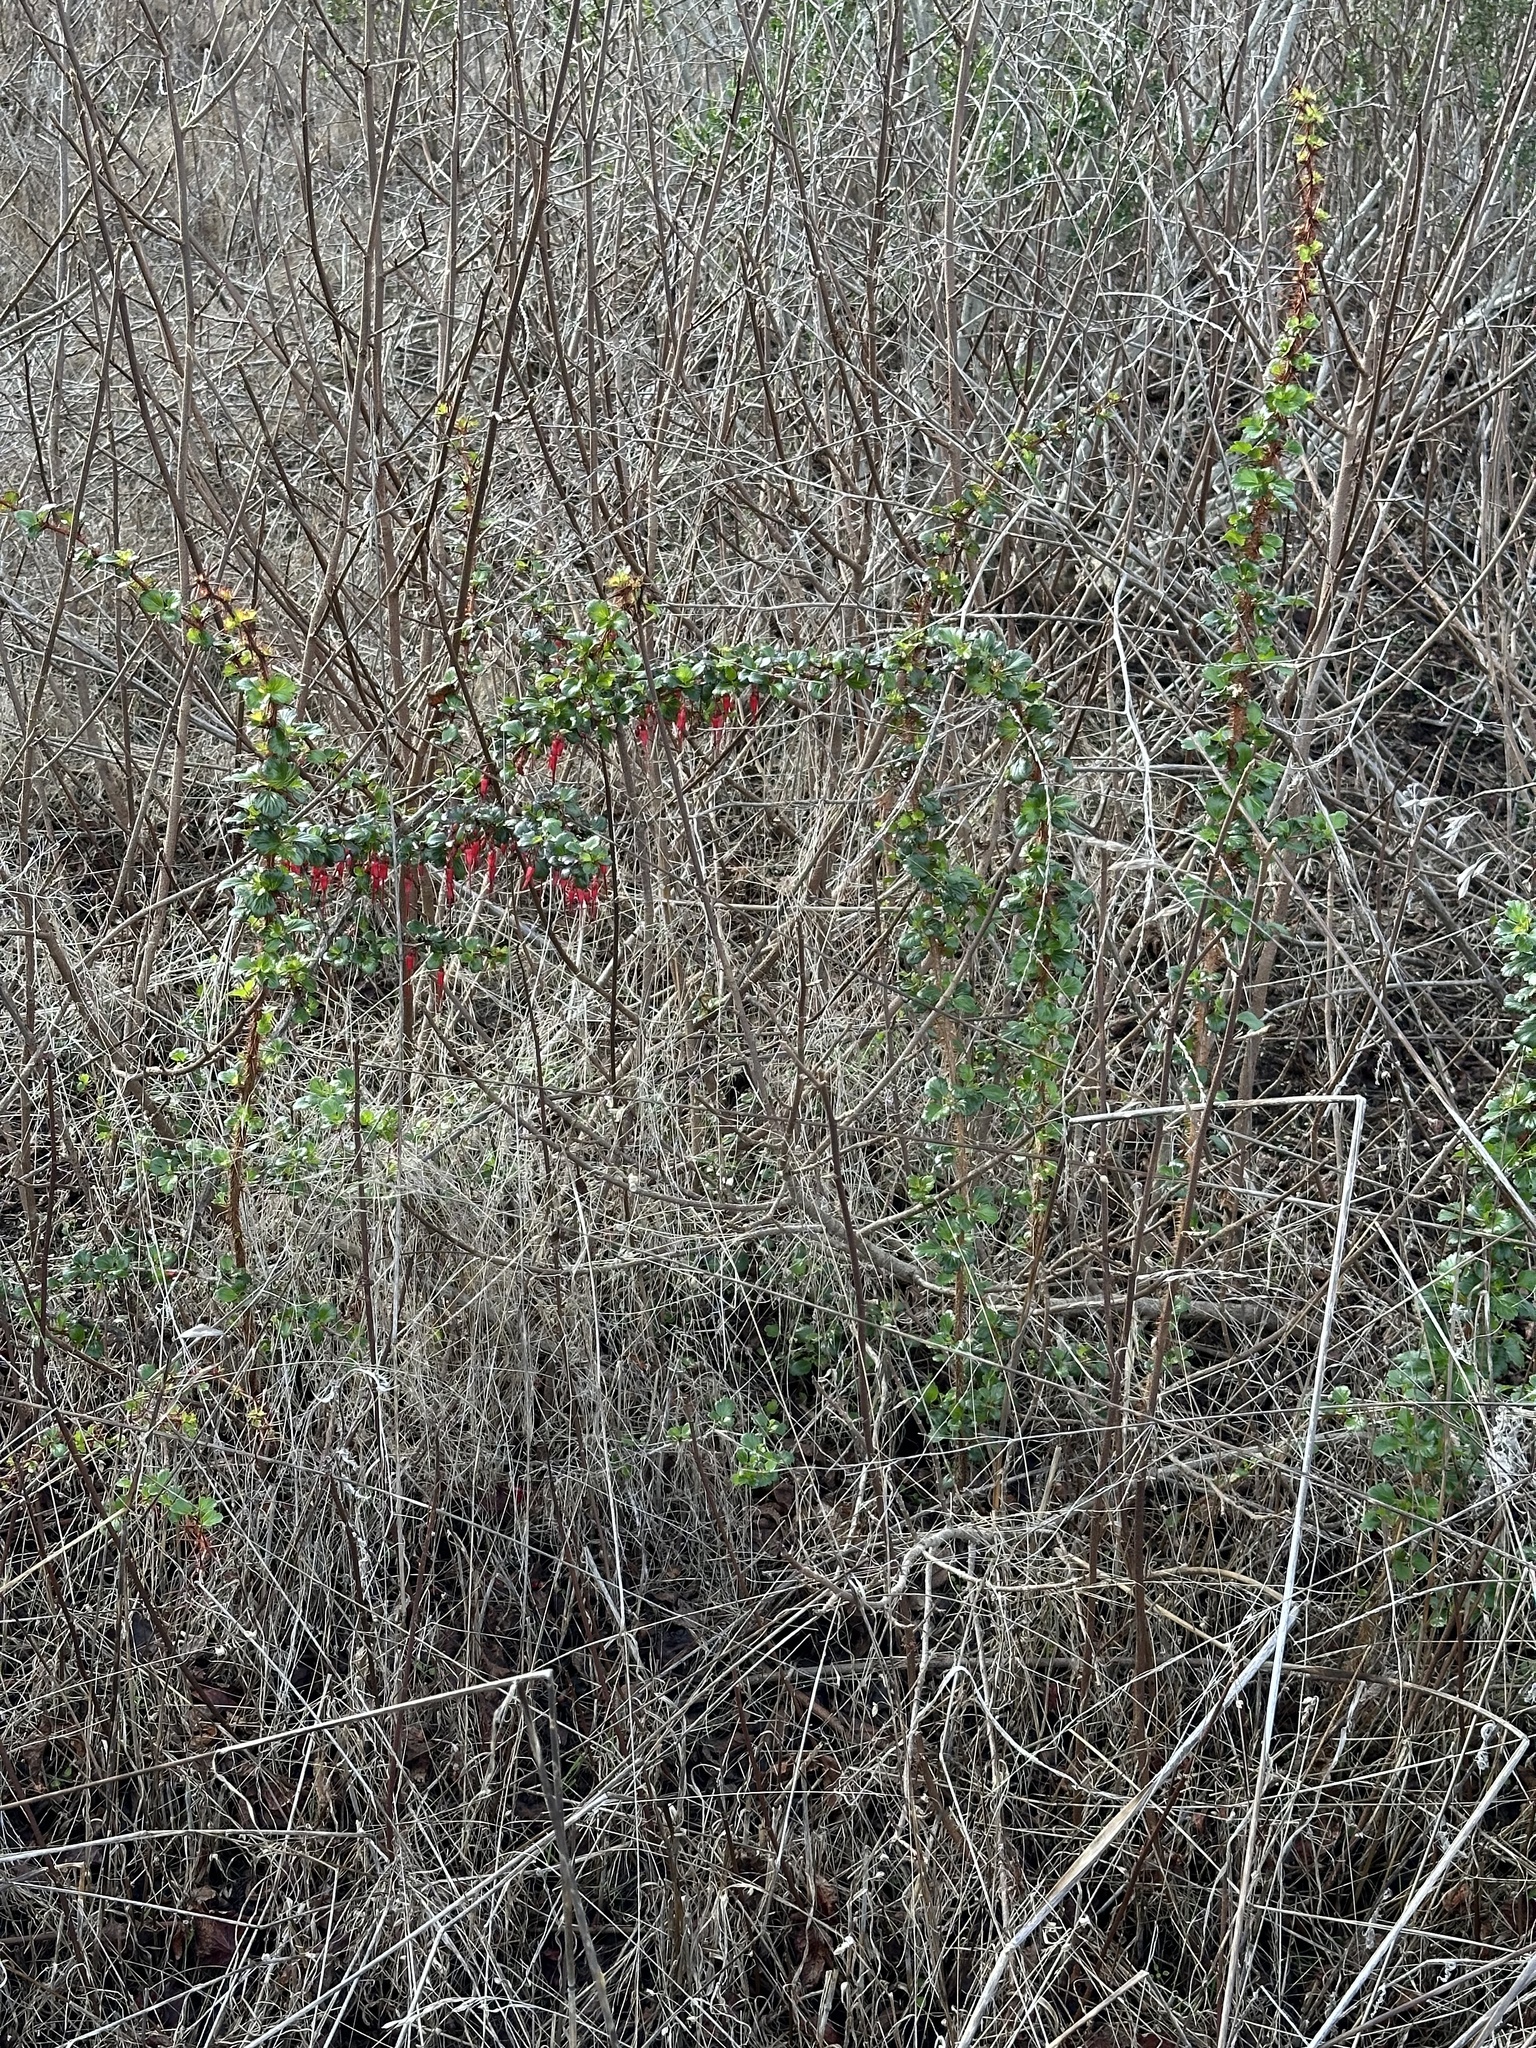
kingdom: Plantae
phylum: Tracheophyta
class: Magnoliopsida
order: Saxifragales
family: Grossulariaceae
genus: Ribes
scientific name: Ribes speciosum
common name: Fuchsia-flower gooseberry
